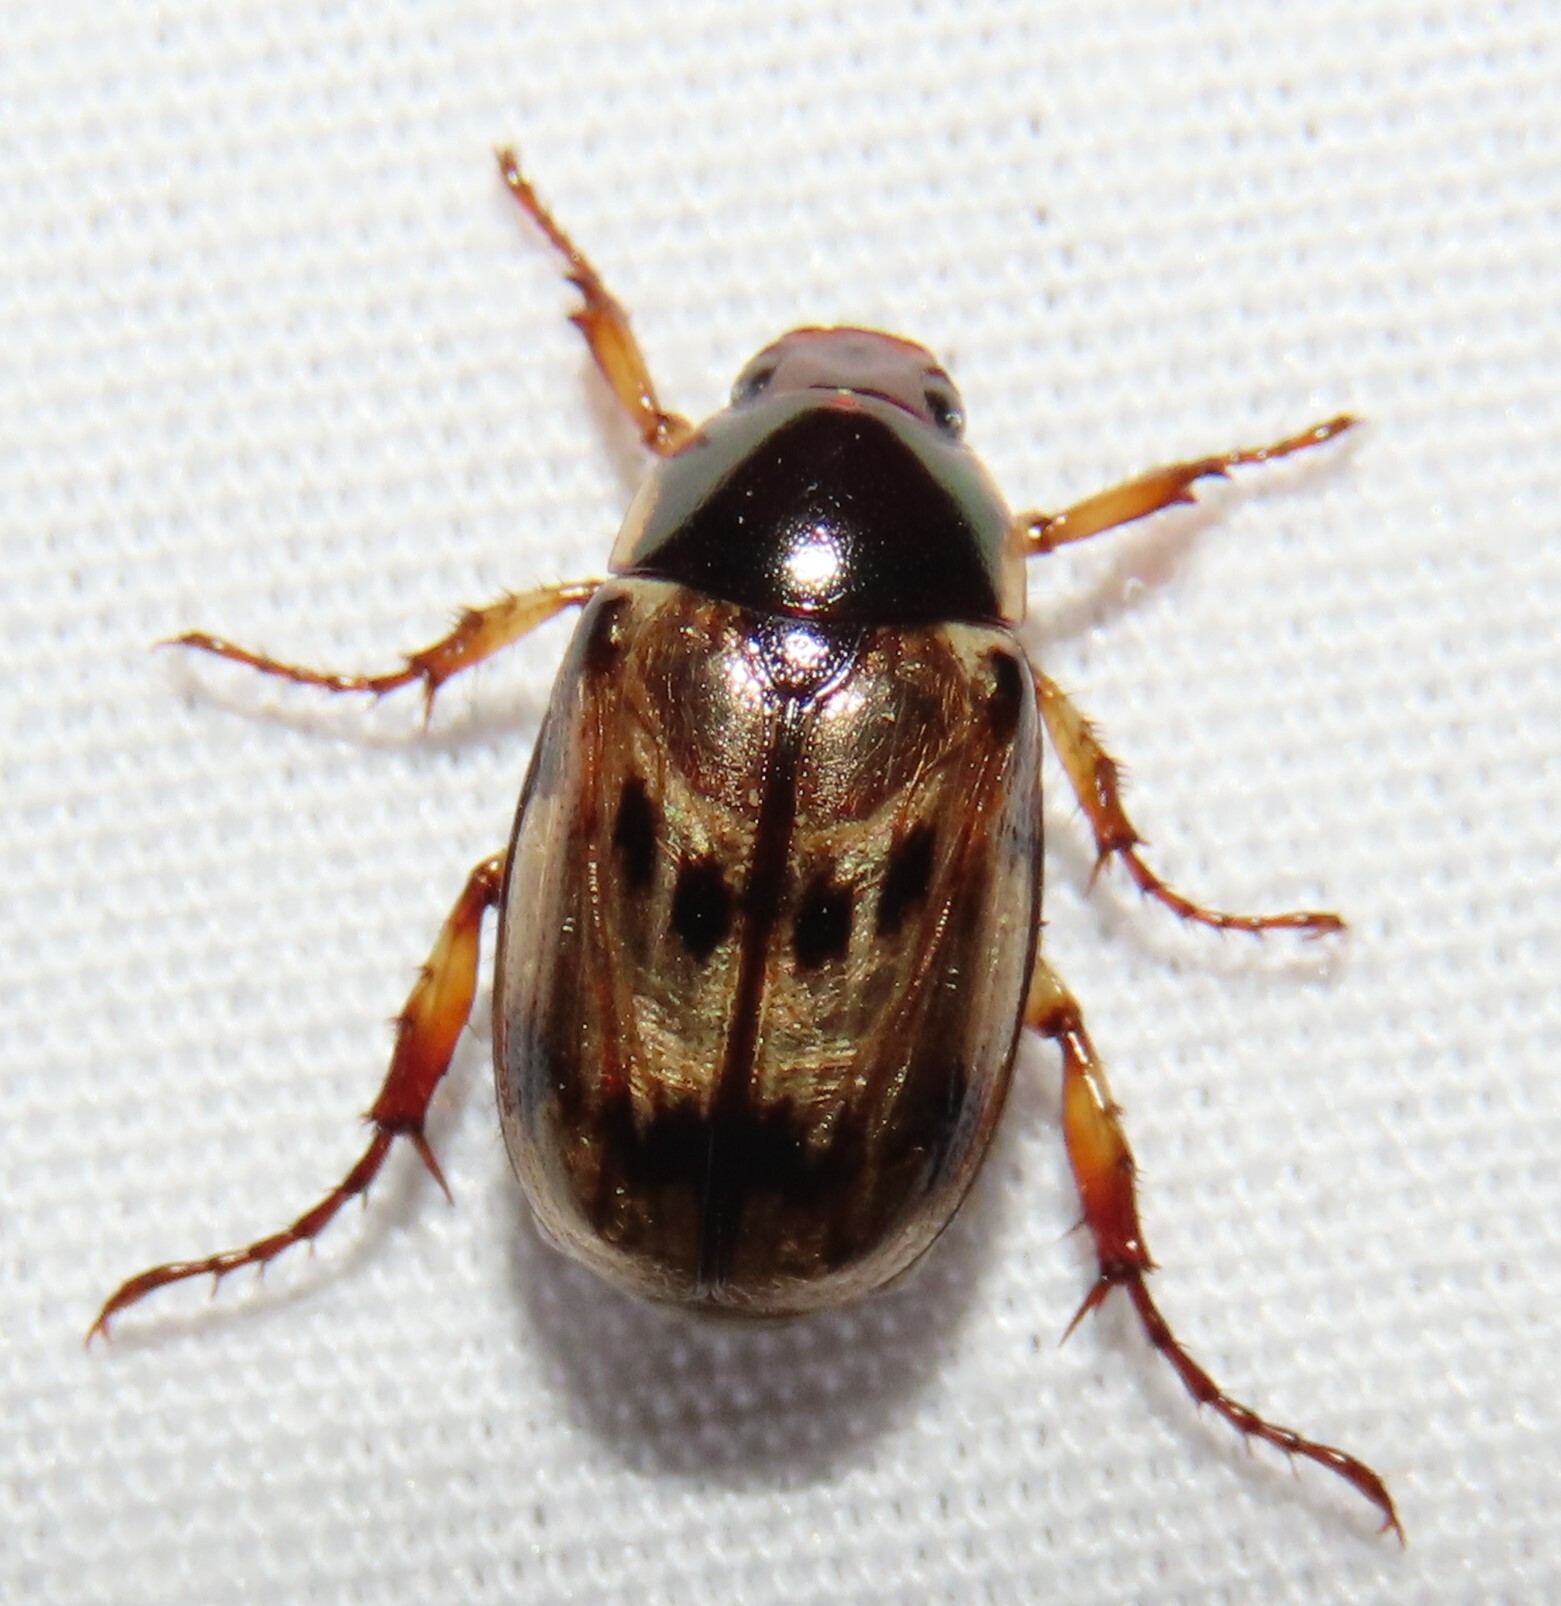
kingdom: Animalia
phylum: Arthropoda
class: Insecta
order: Coleoptera
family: Scarabaeidae
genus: Paranomala
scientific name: Paranomala undulata
